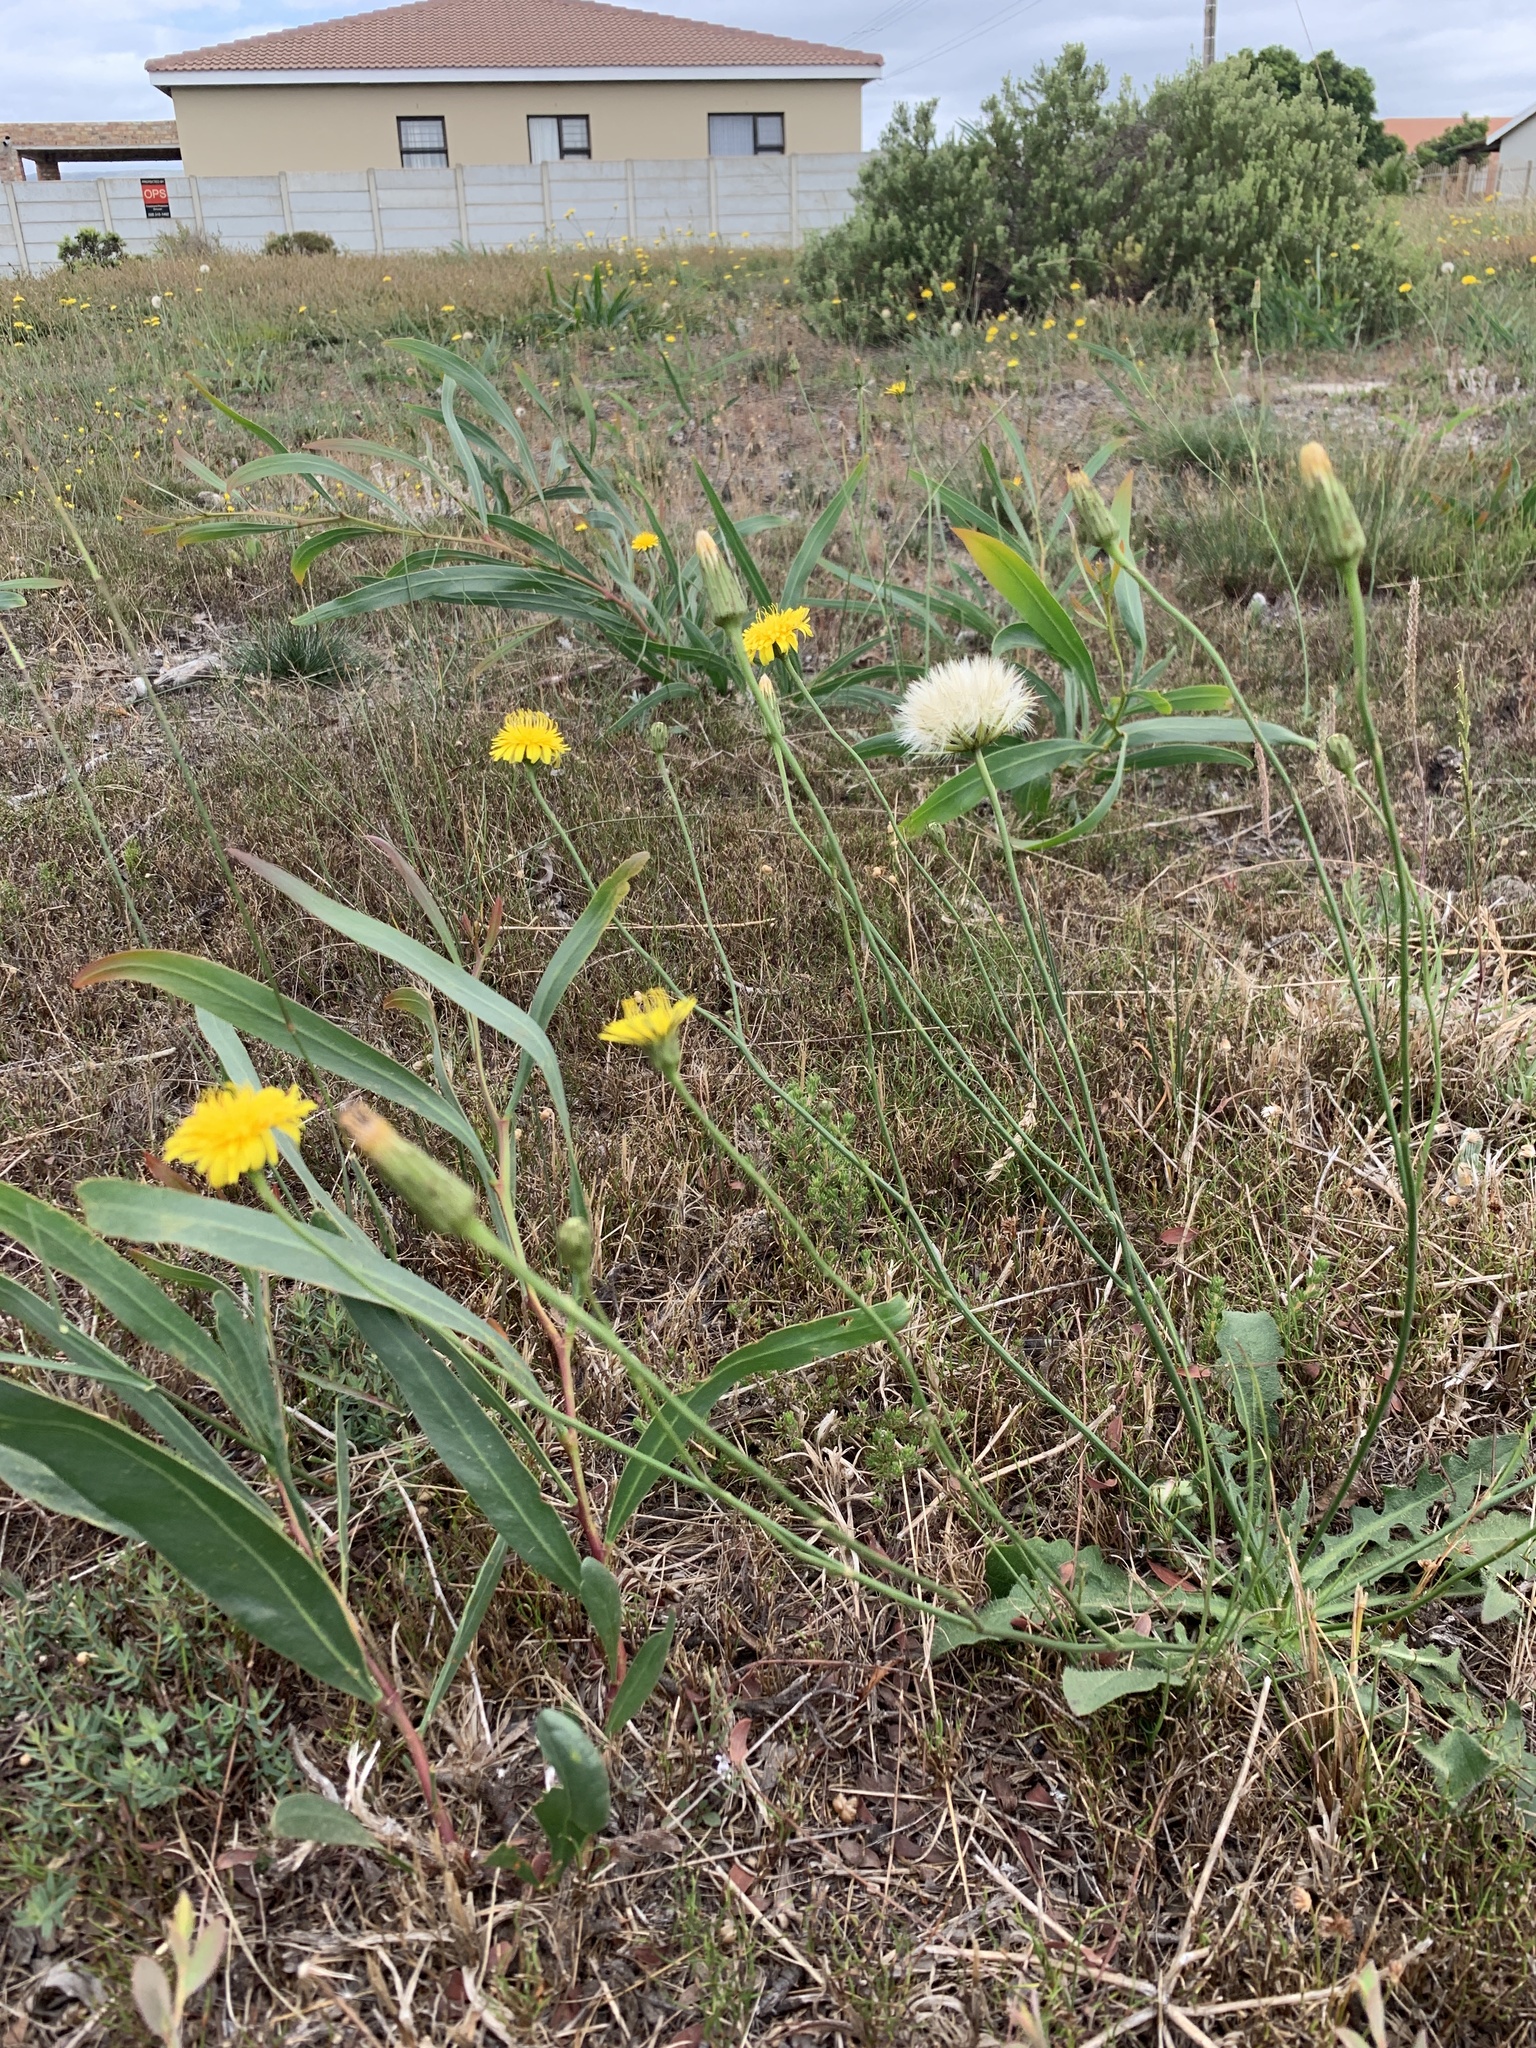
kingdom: Plantae
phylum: Tracheophyta
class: Magnoliopsida
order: Asterales
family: Asteraceae
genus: Hypochaeris
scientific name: Hypochaeris radicata
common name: Flatweed
